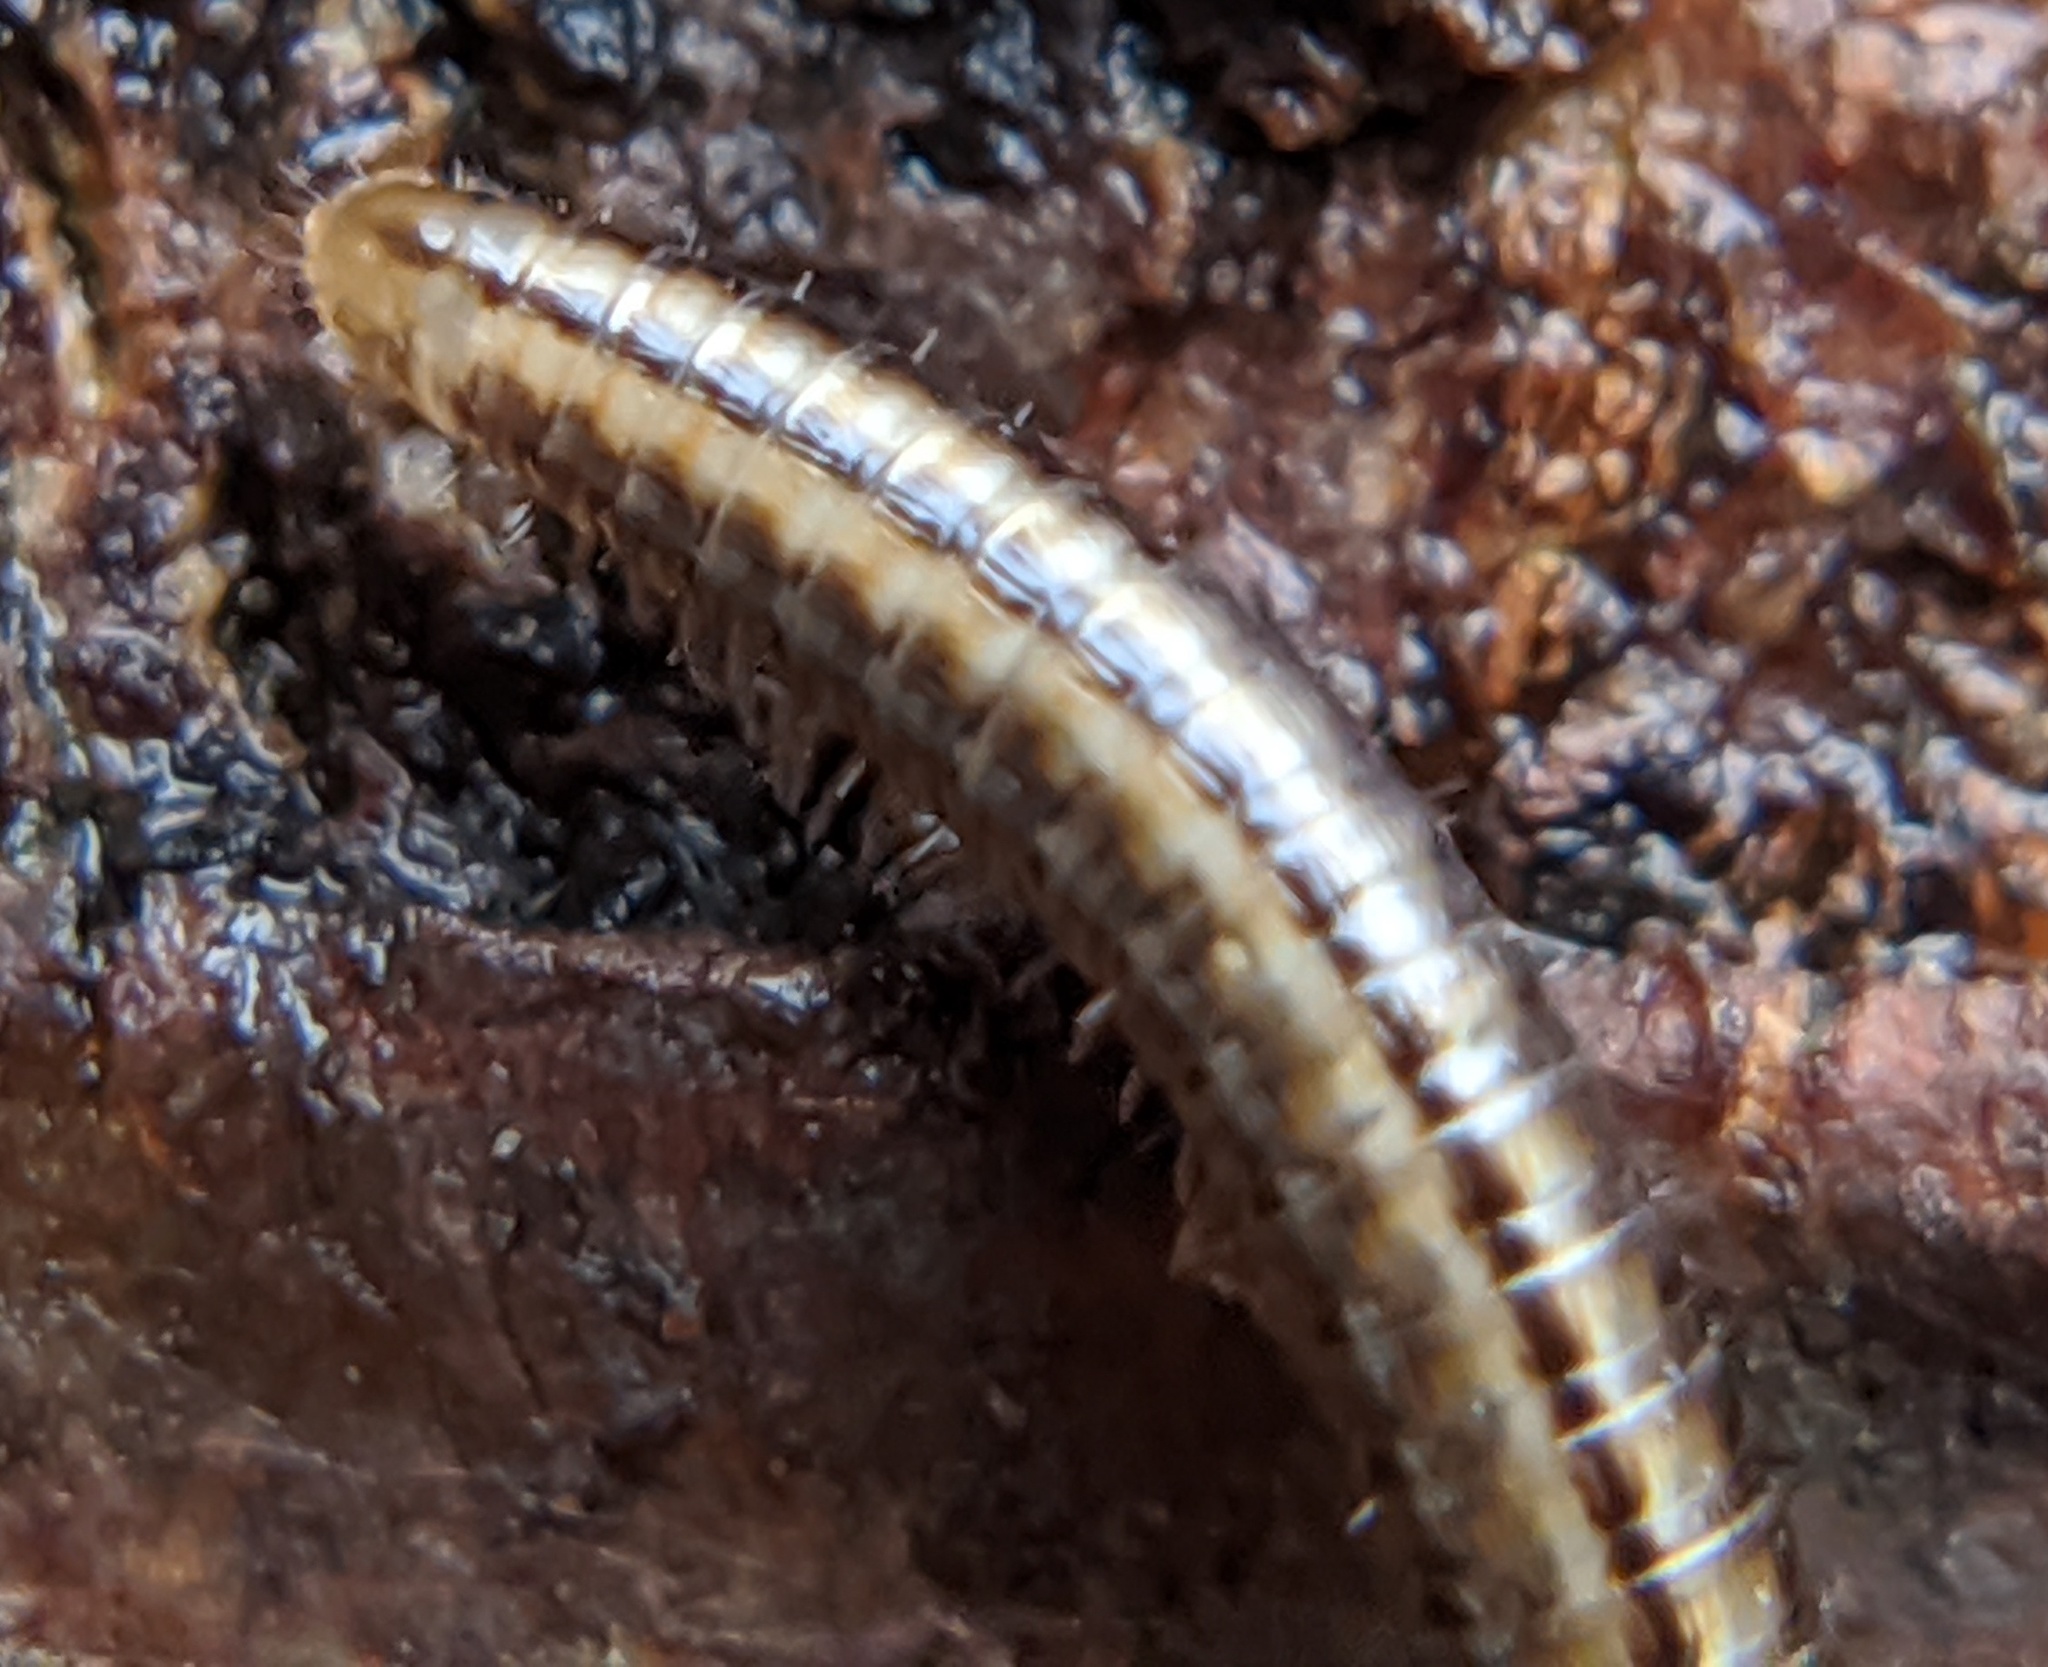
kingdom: Animalia
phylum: Arthropoda
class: Diplopoda
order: Julida
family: Julidae
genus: Brachyiulus
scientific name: Brachyiulus
